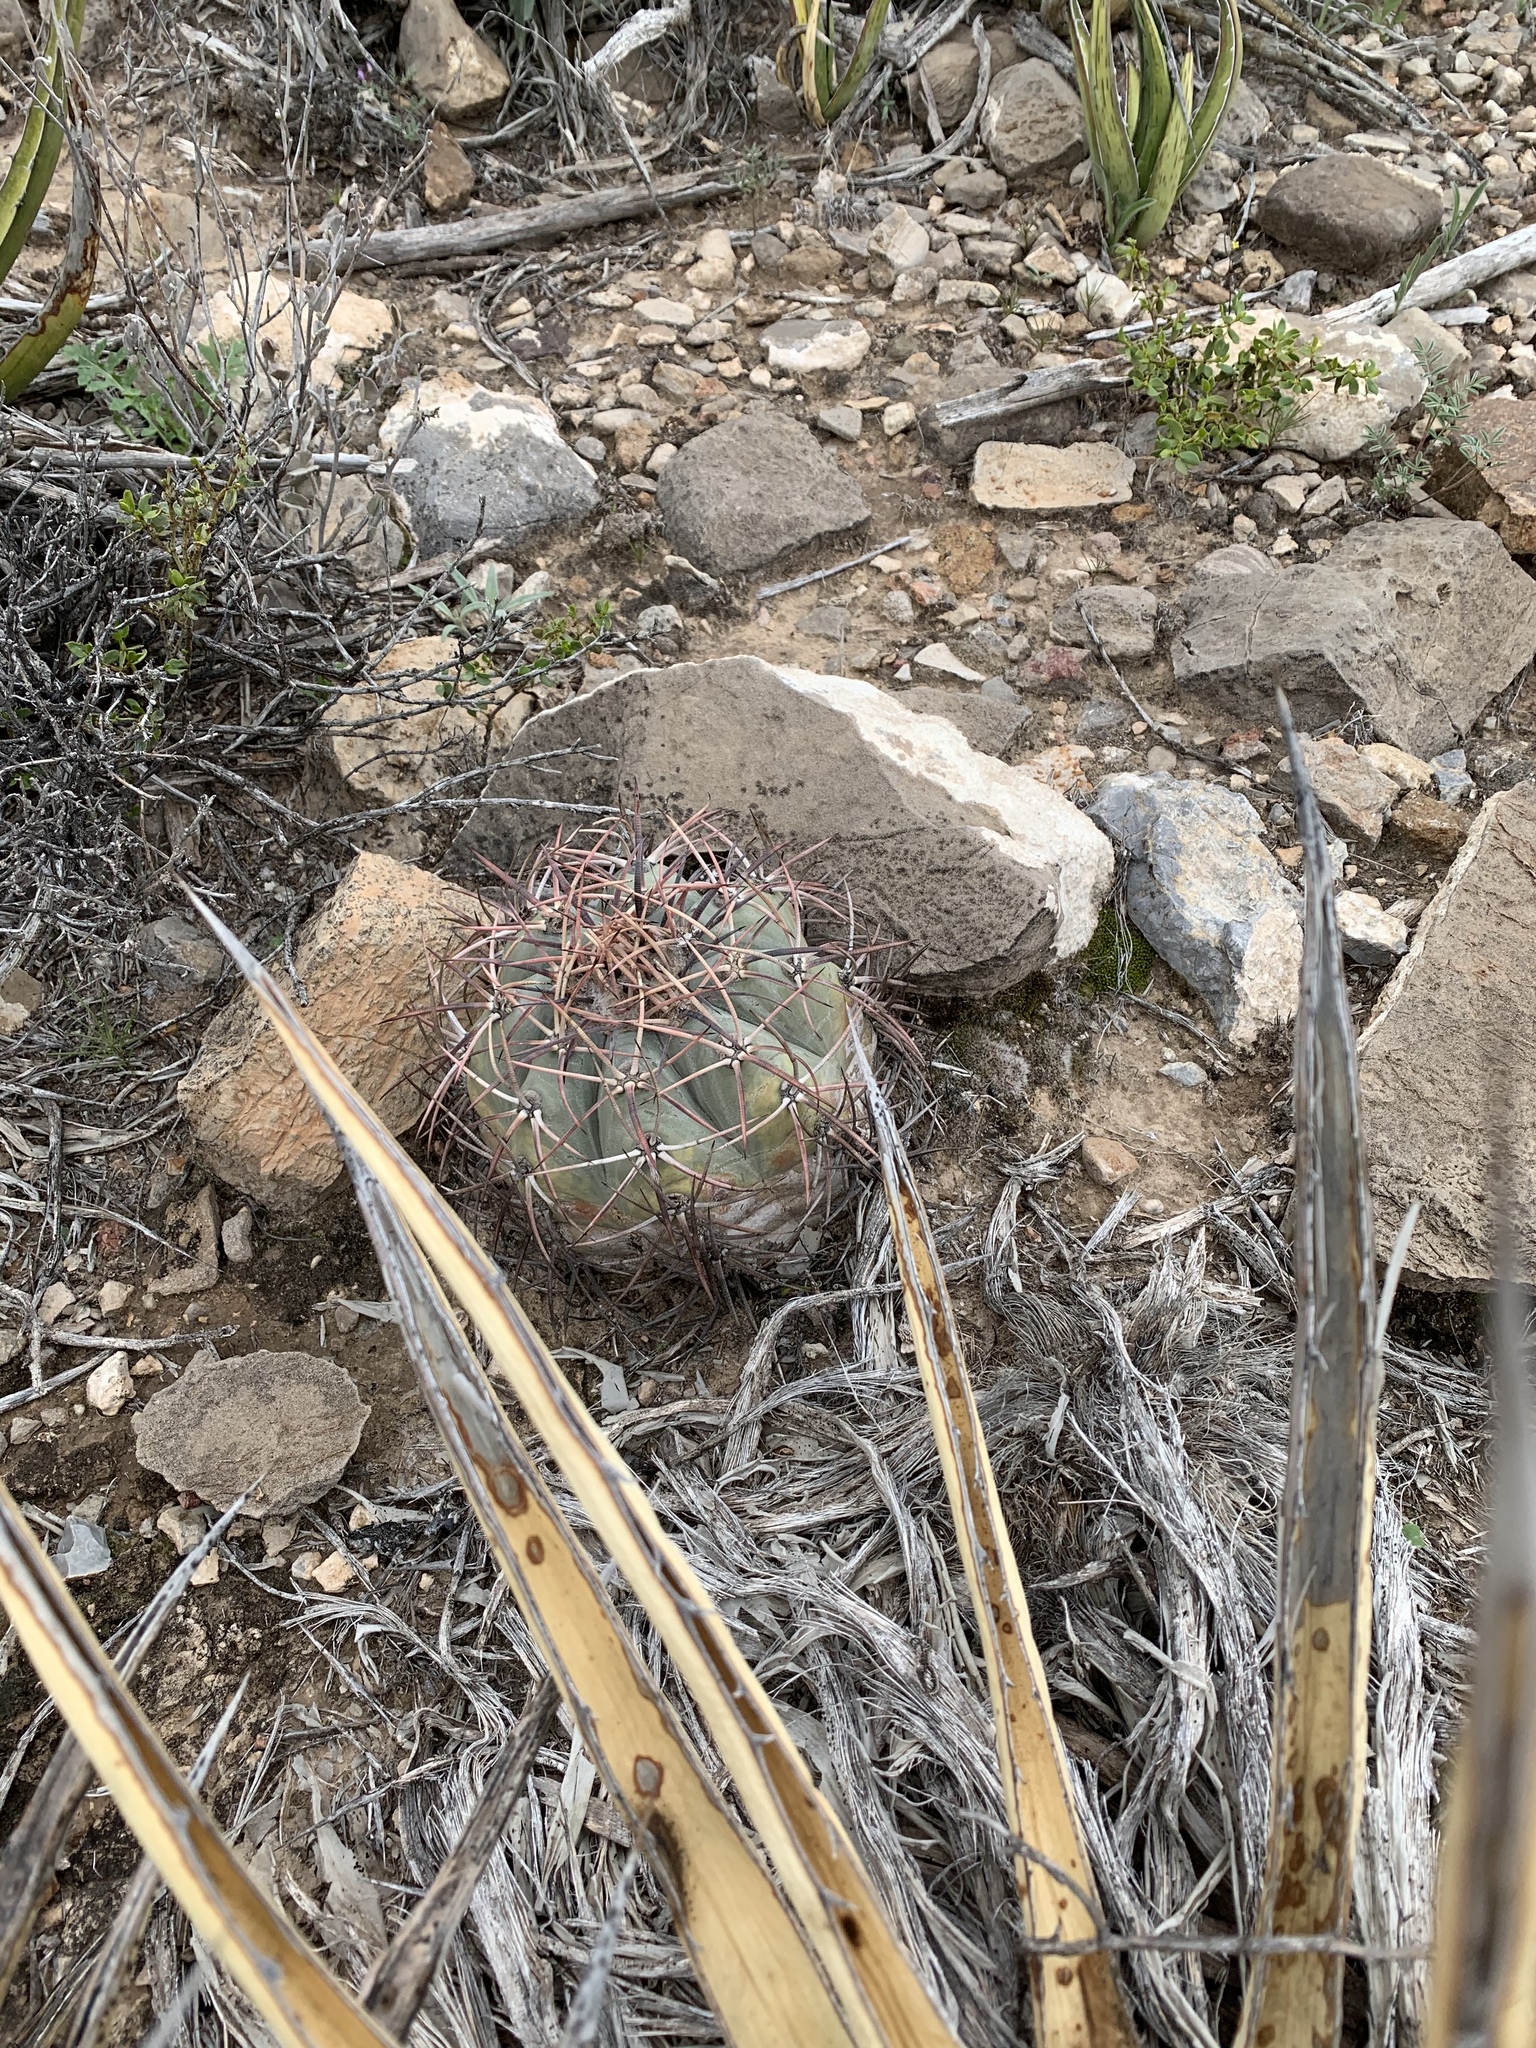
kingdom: Plantae
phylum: Tracheophyta
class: Magnoliopsida
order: Caryophyllales
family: Cactaceae
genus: Echinocactus
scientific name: Echinocactus horizonthalonius
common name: Devilshead
